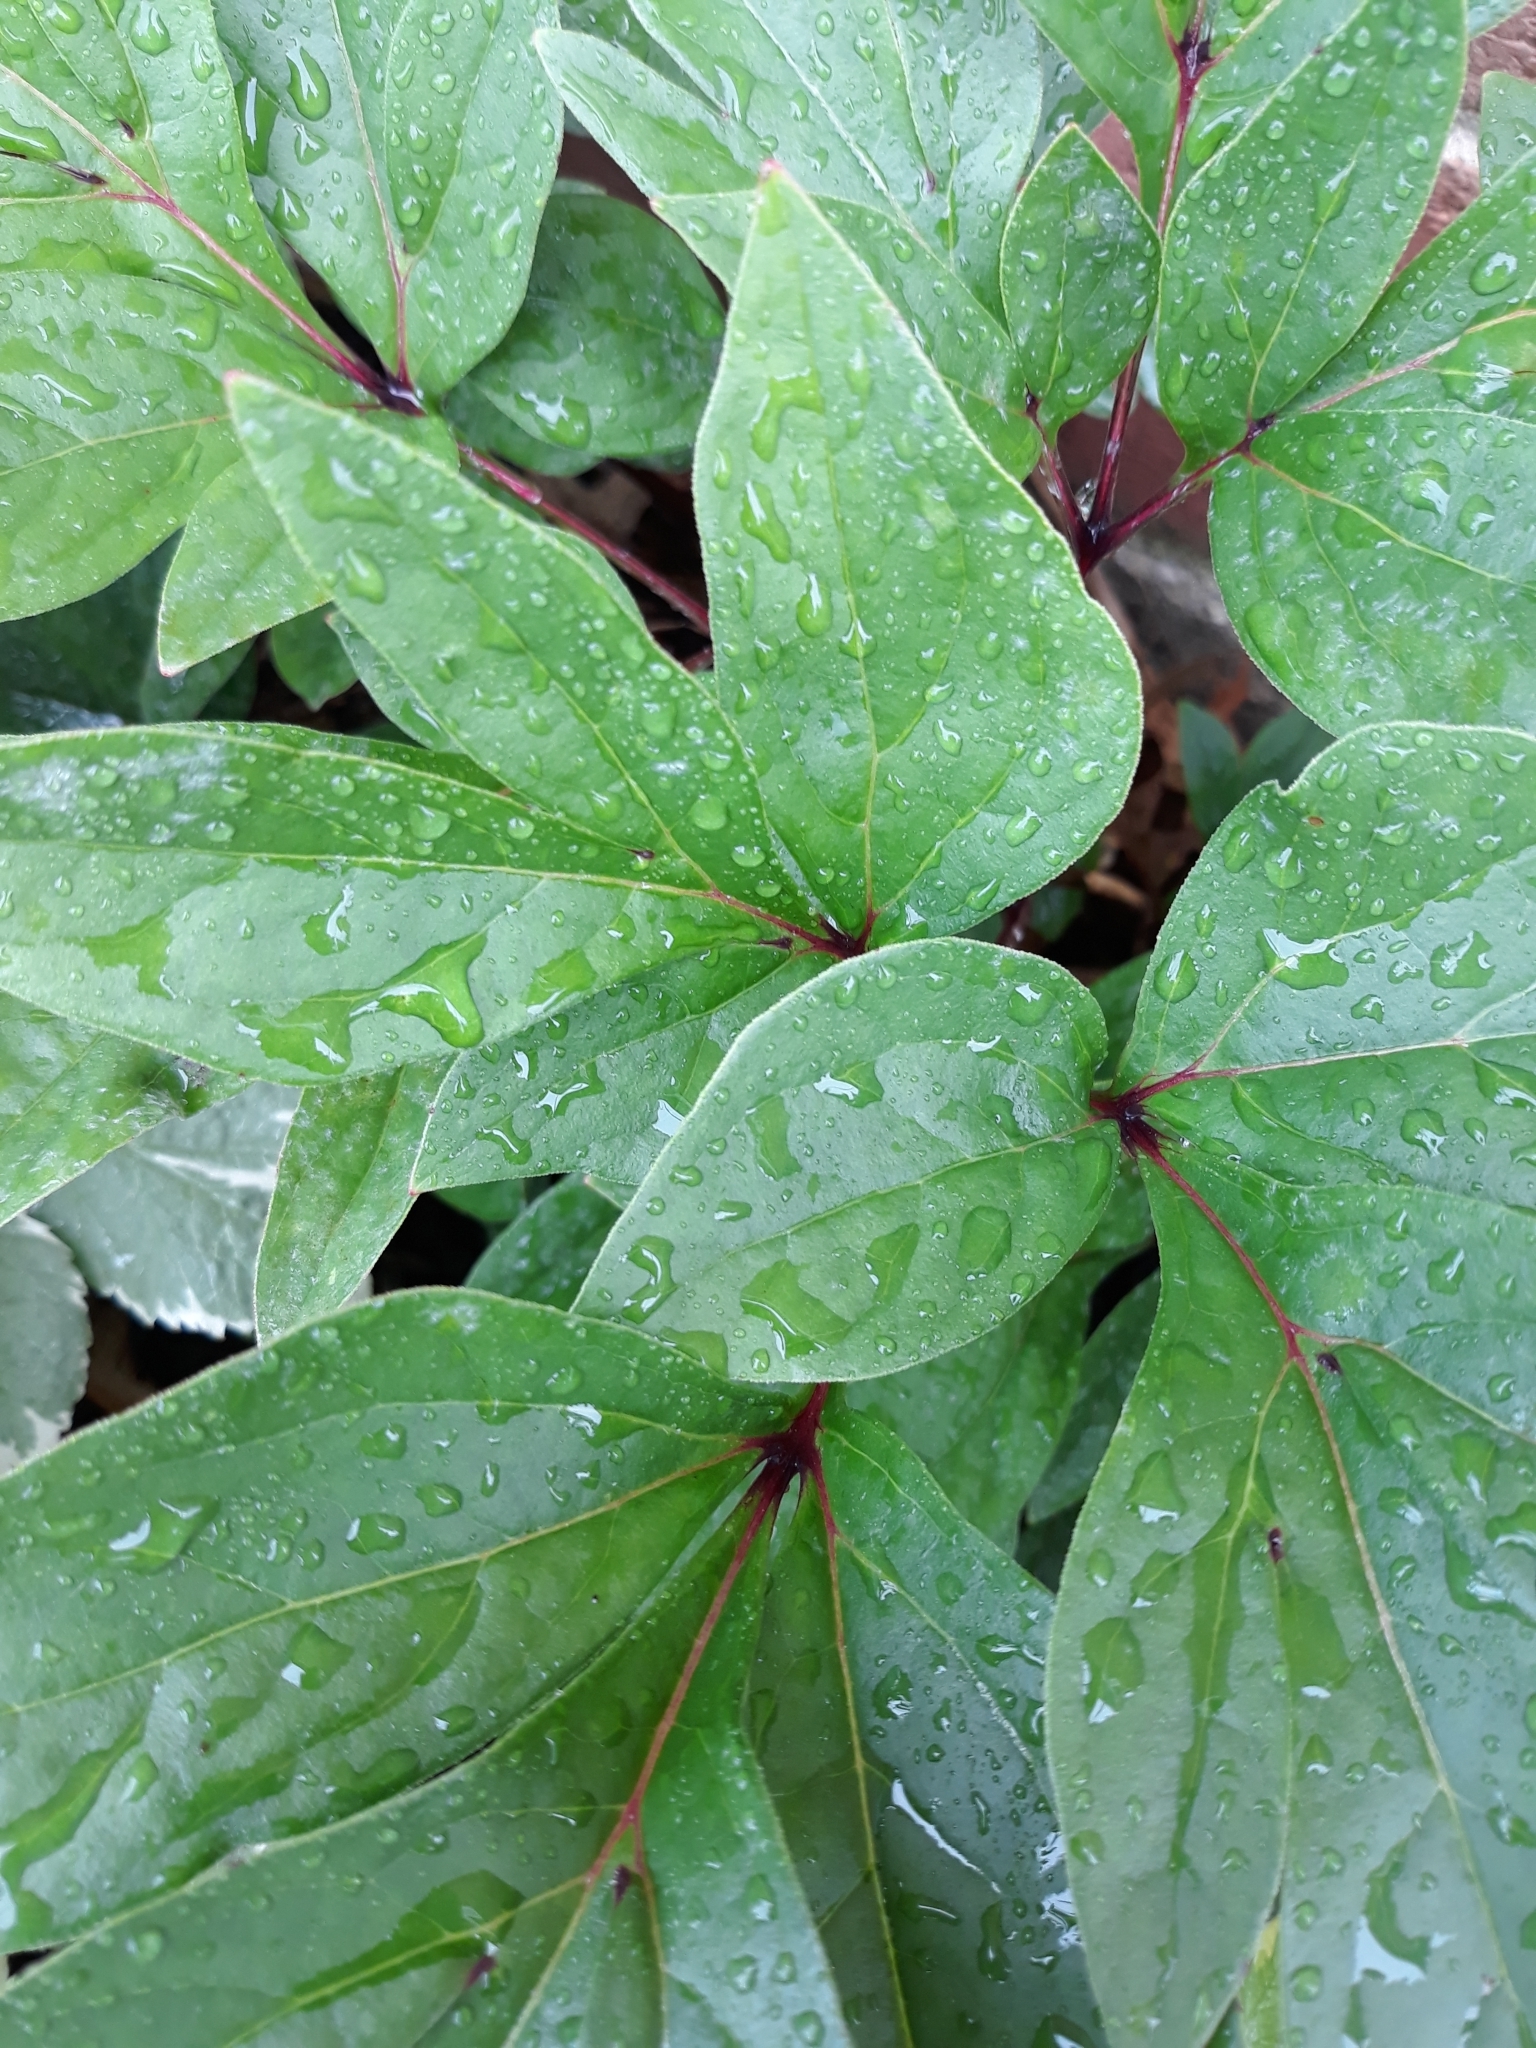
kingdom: Plantae
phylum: Tracheophyta
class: Magnoliopsida
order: Saxifragales
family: Paeoniaceae
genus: Paeonia
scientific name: Paeonia officinalis
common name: Common peony
